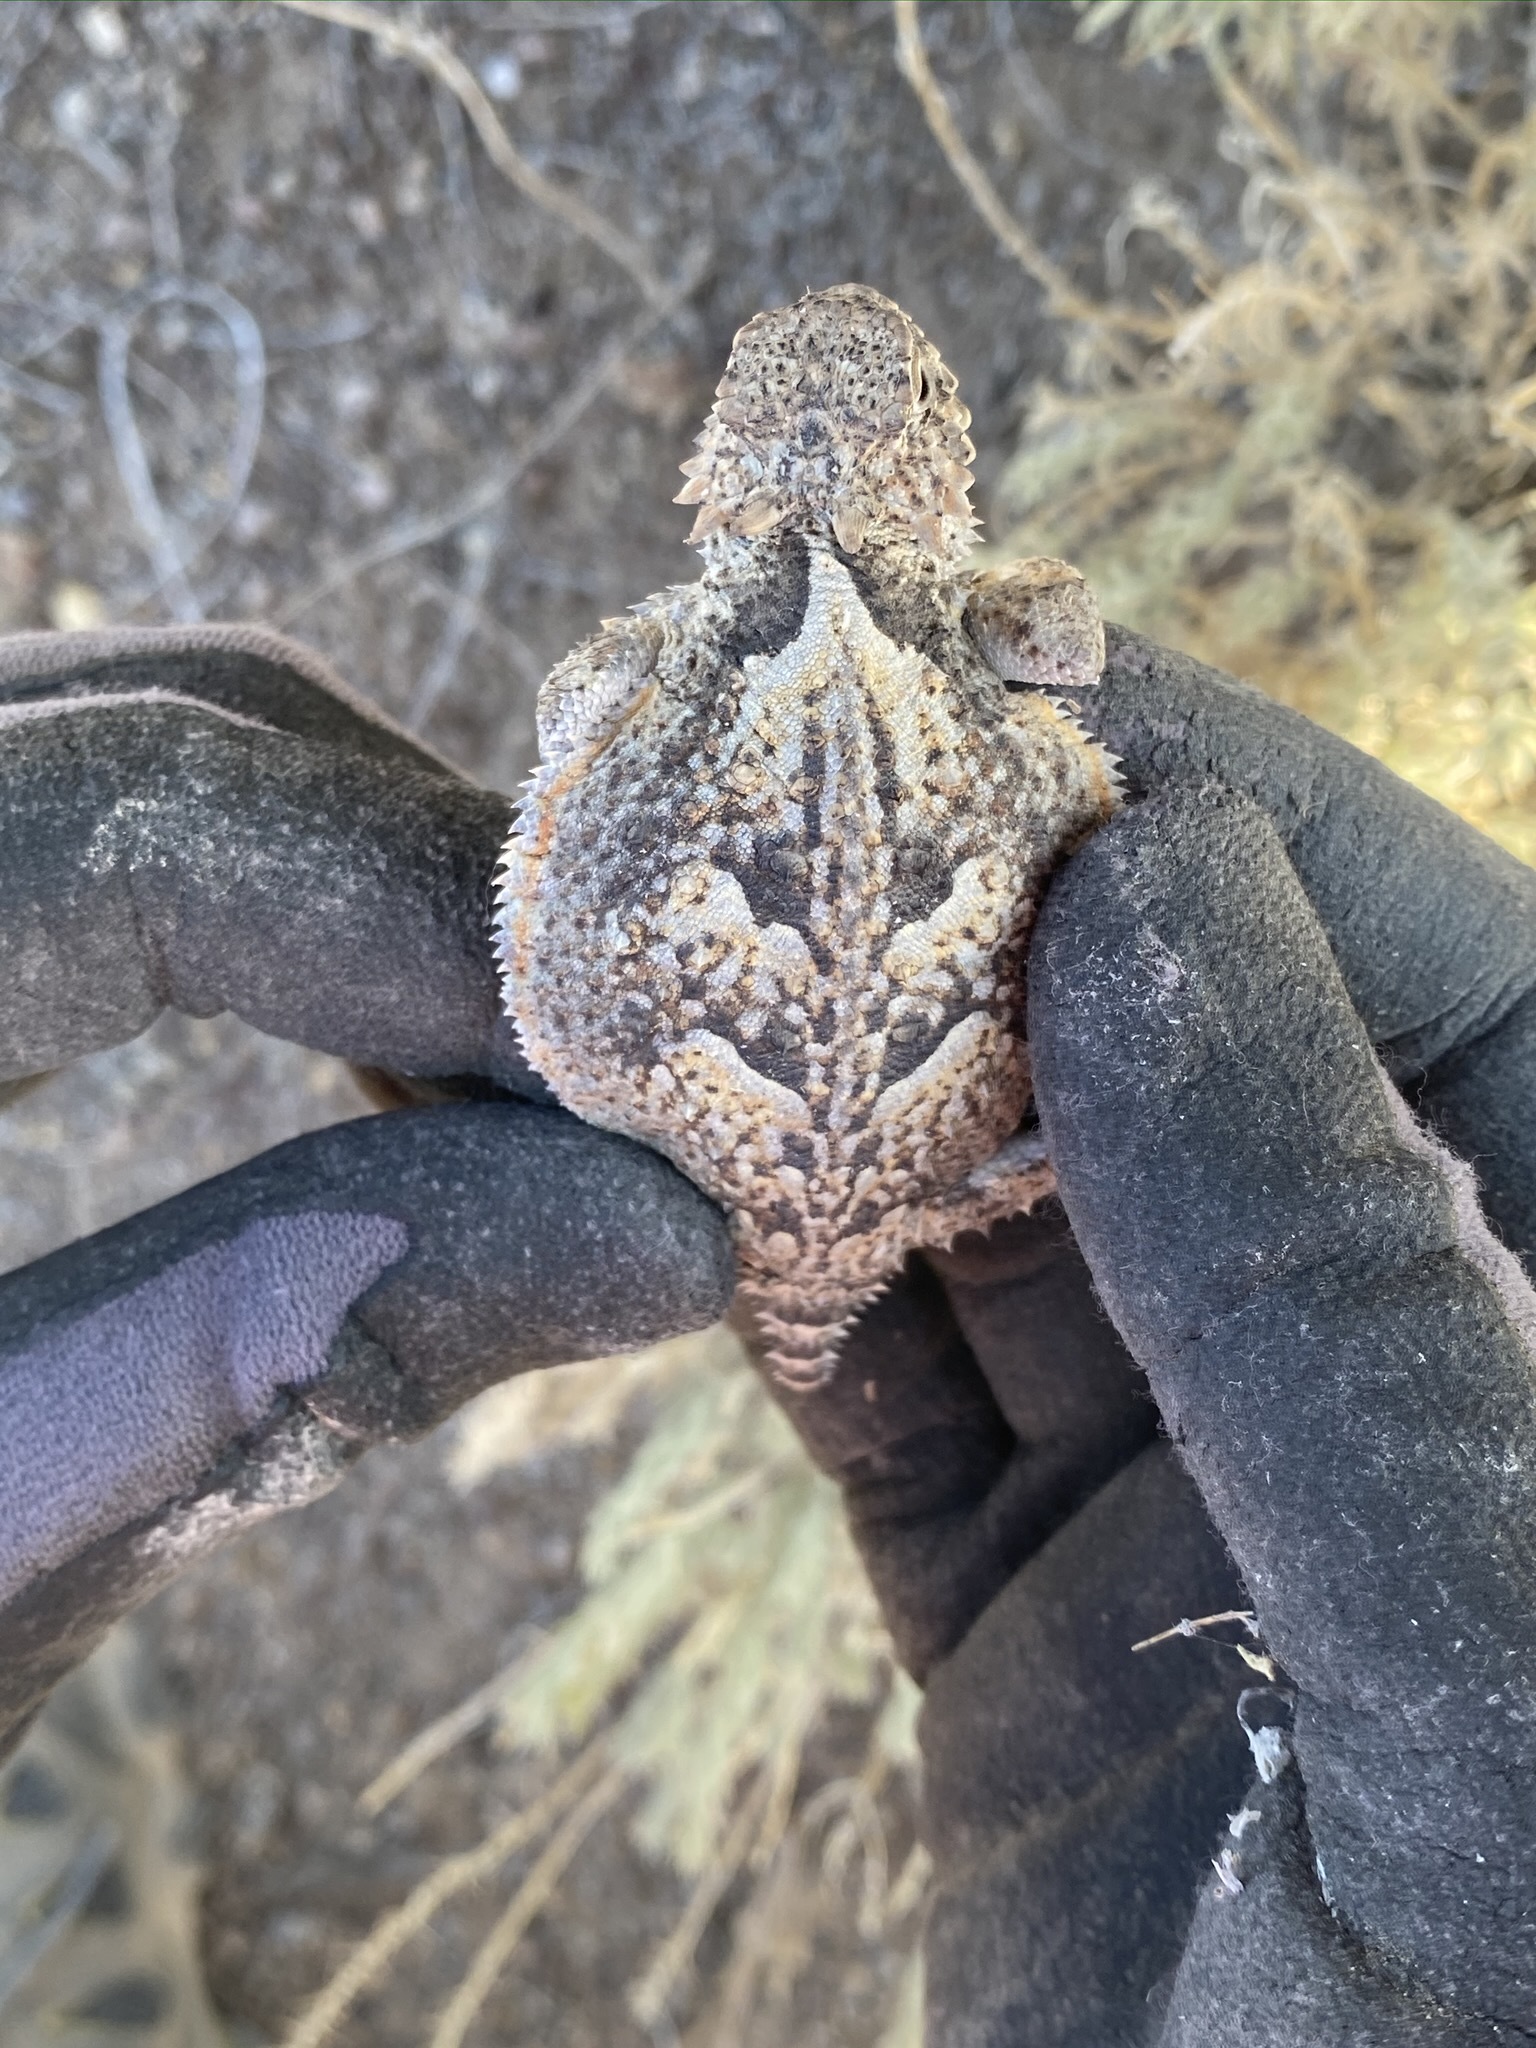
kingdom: Animalia
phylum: Chordata
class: Squamata
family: Phrynosomatidae
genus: Phrynosoma
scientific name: Phrynosoma platyrhinos
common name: Desert horned lizard
